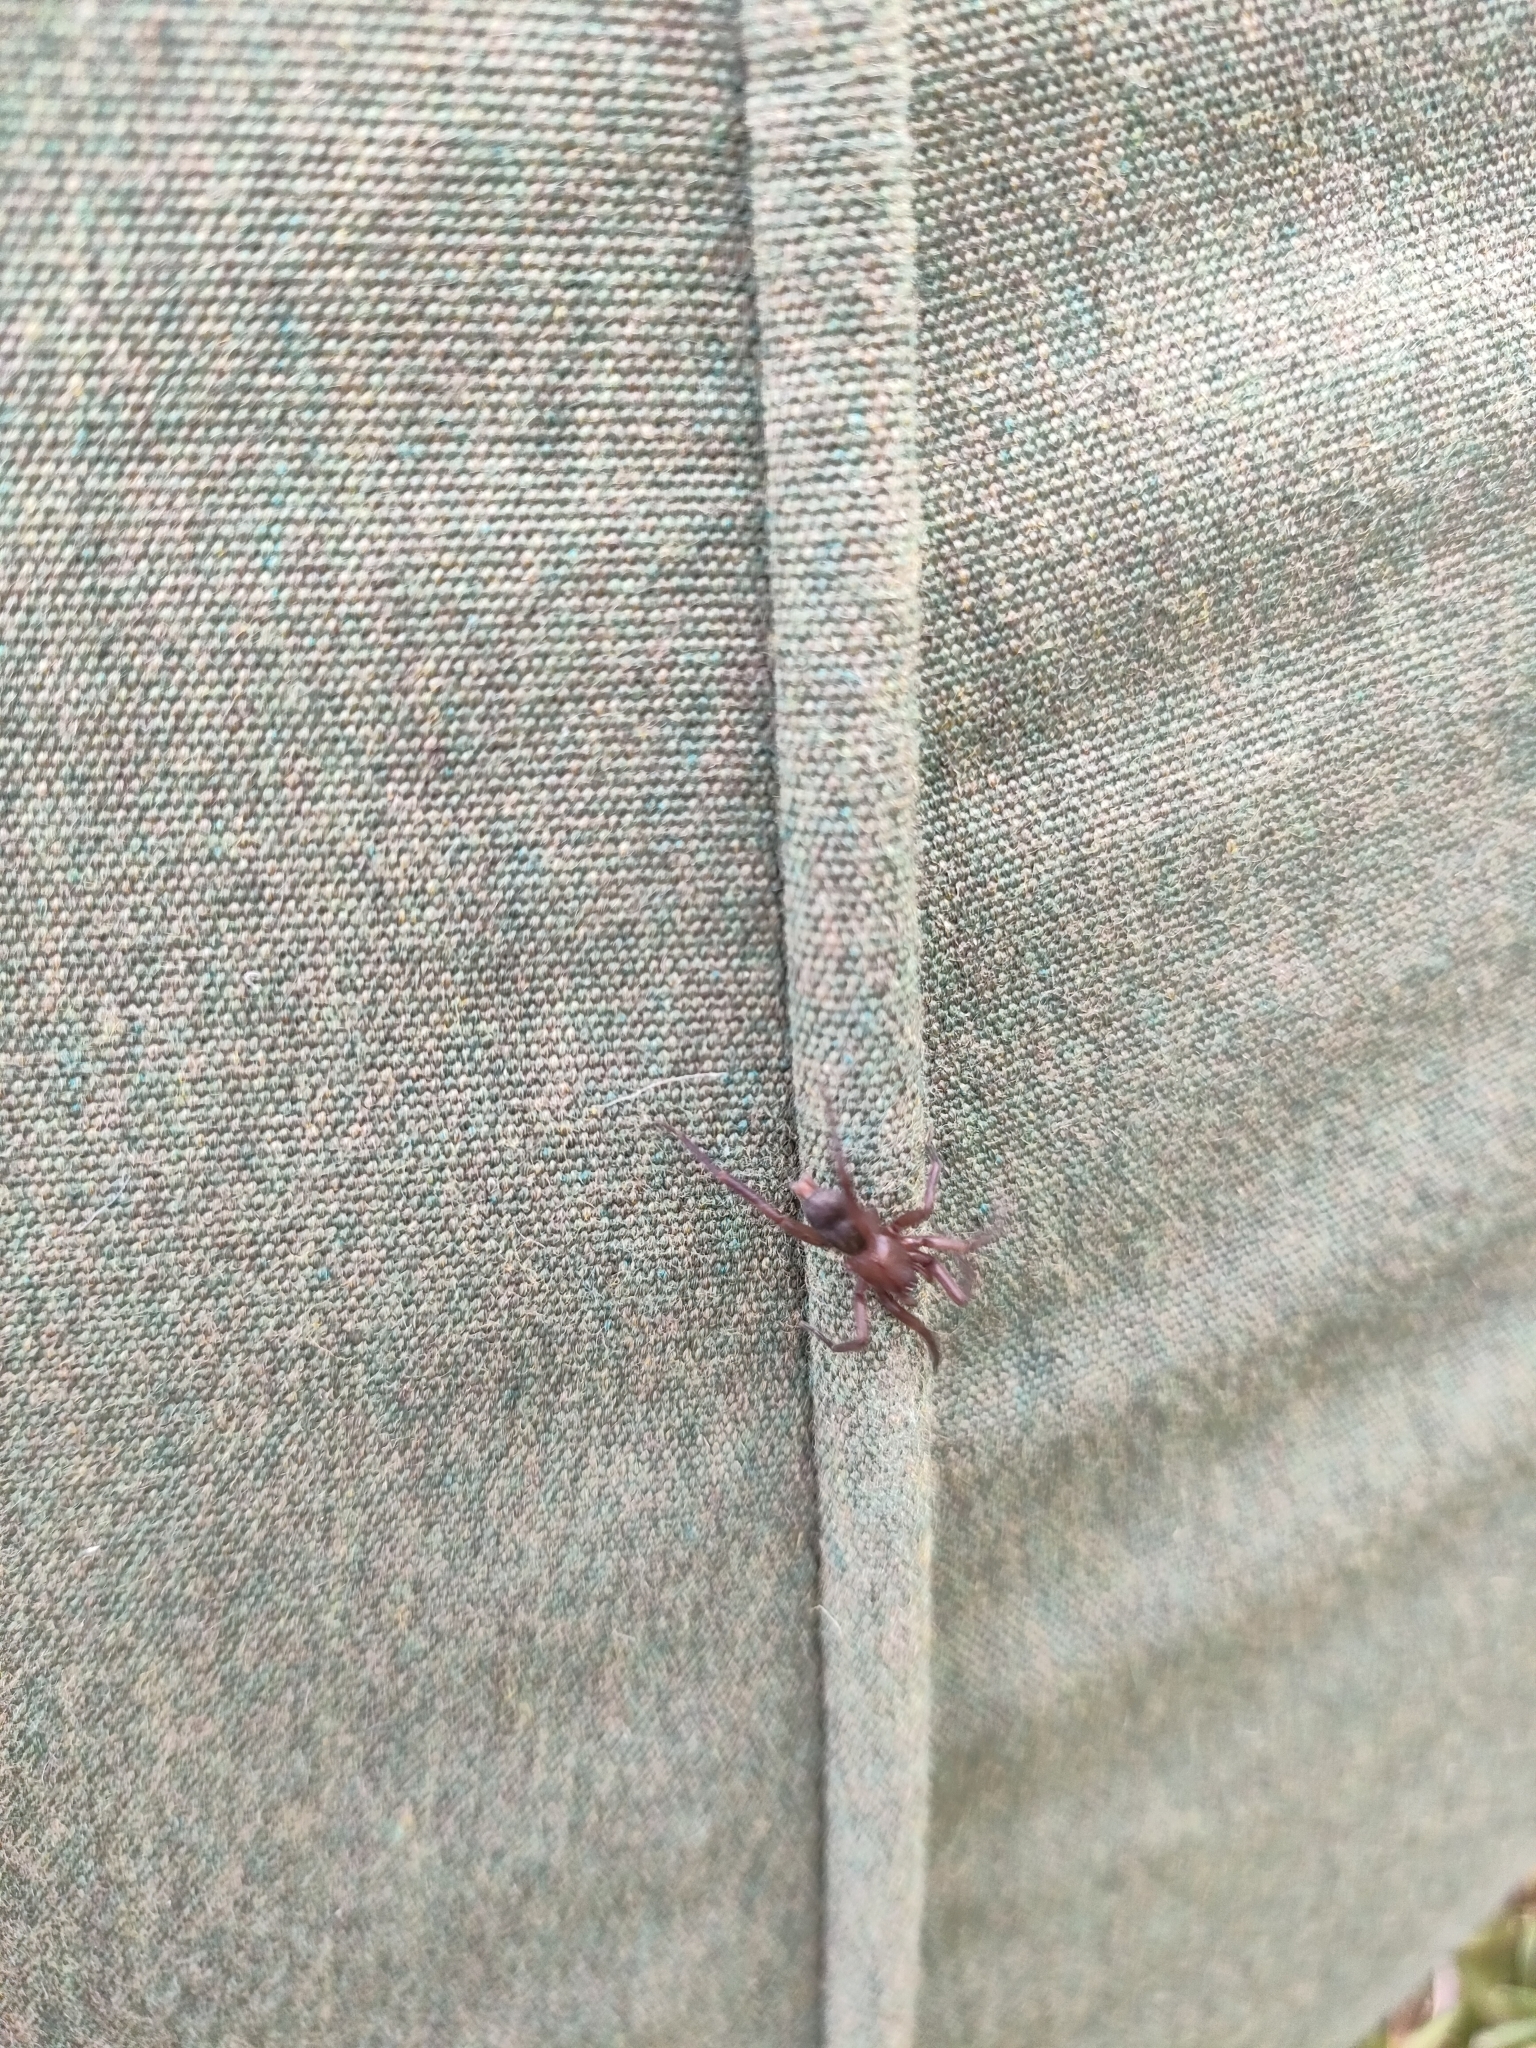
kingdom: Animalia
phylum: Arthropoda
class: Arachnida
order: Araneae
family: Gnaphosidae
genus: Hypodrassodes
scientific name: Hypodrassodes maoricus
